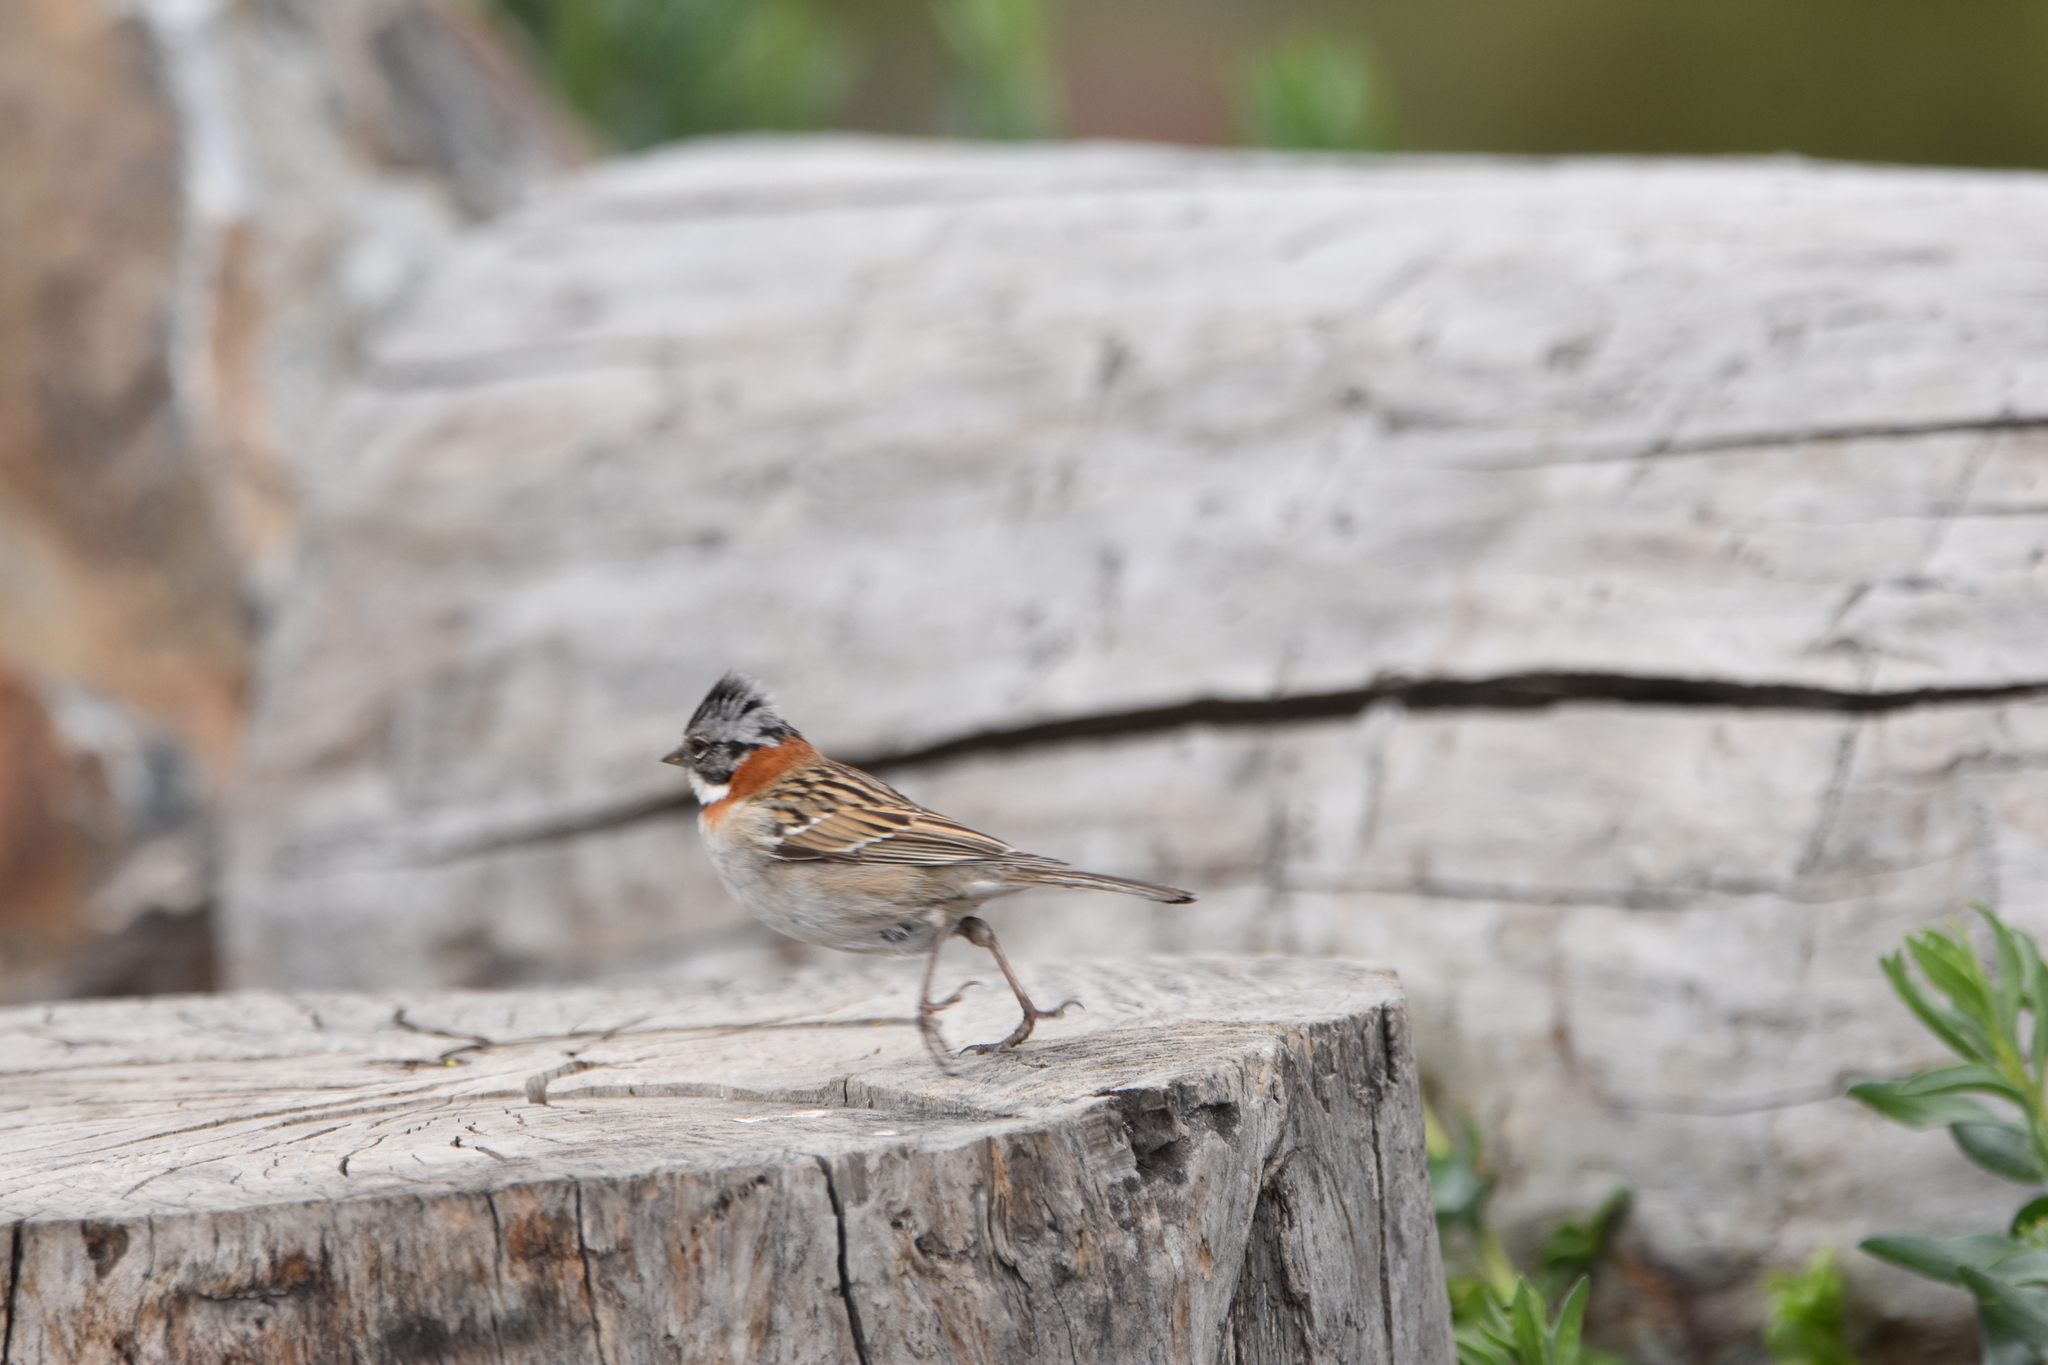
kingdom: Animalia
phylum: Chordata
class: Aves
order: Passeriformes
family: Passerellidae
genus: Zonotrichia
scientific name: Zonotrichia capensis
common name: Rufous-collared sparrow
